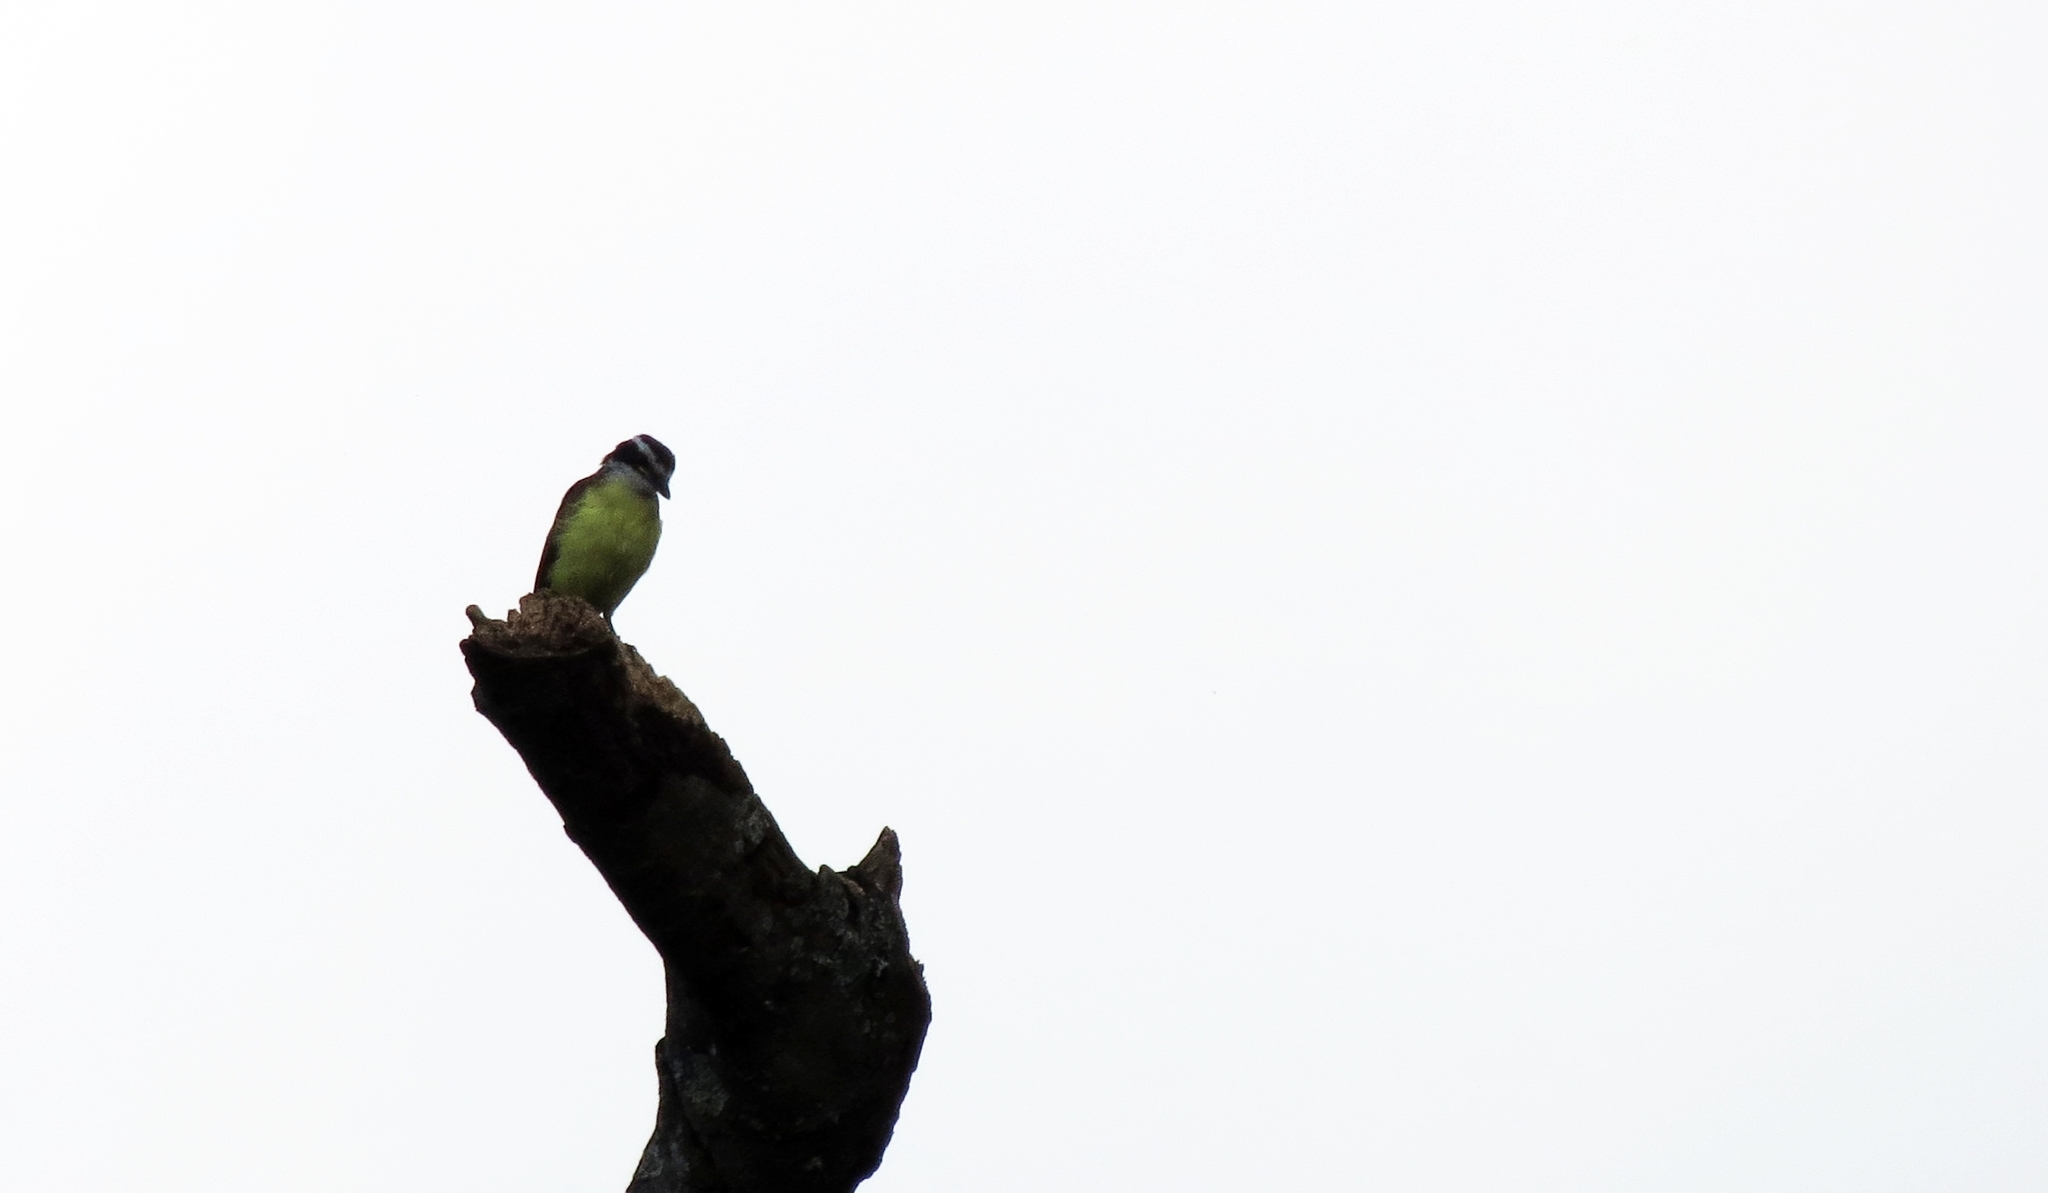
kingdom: Animalia
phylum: Chordata
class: Aves
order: Passeriformes
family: Tyrannidae
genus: Pitangus
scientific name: Pitangus sulphuratus
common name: Great kiskadee
